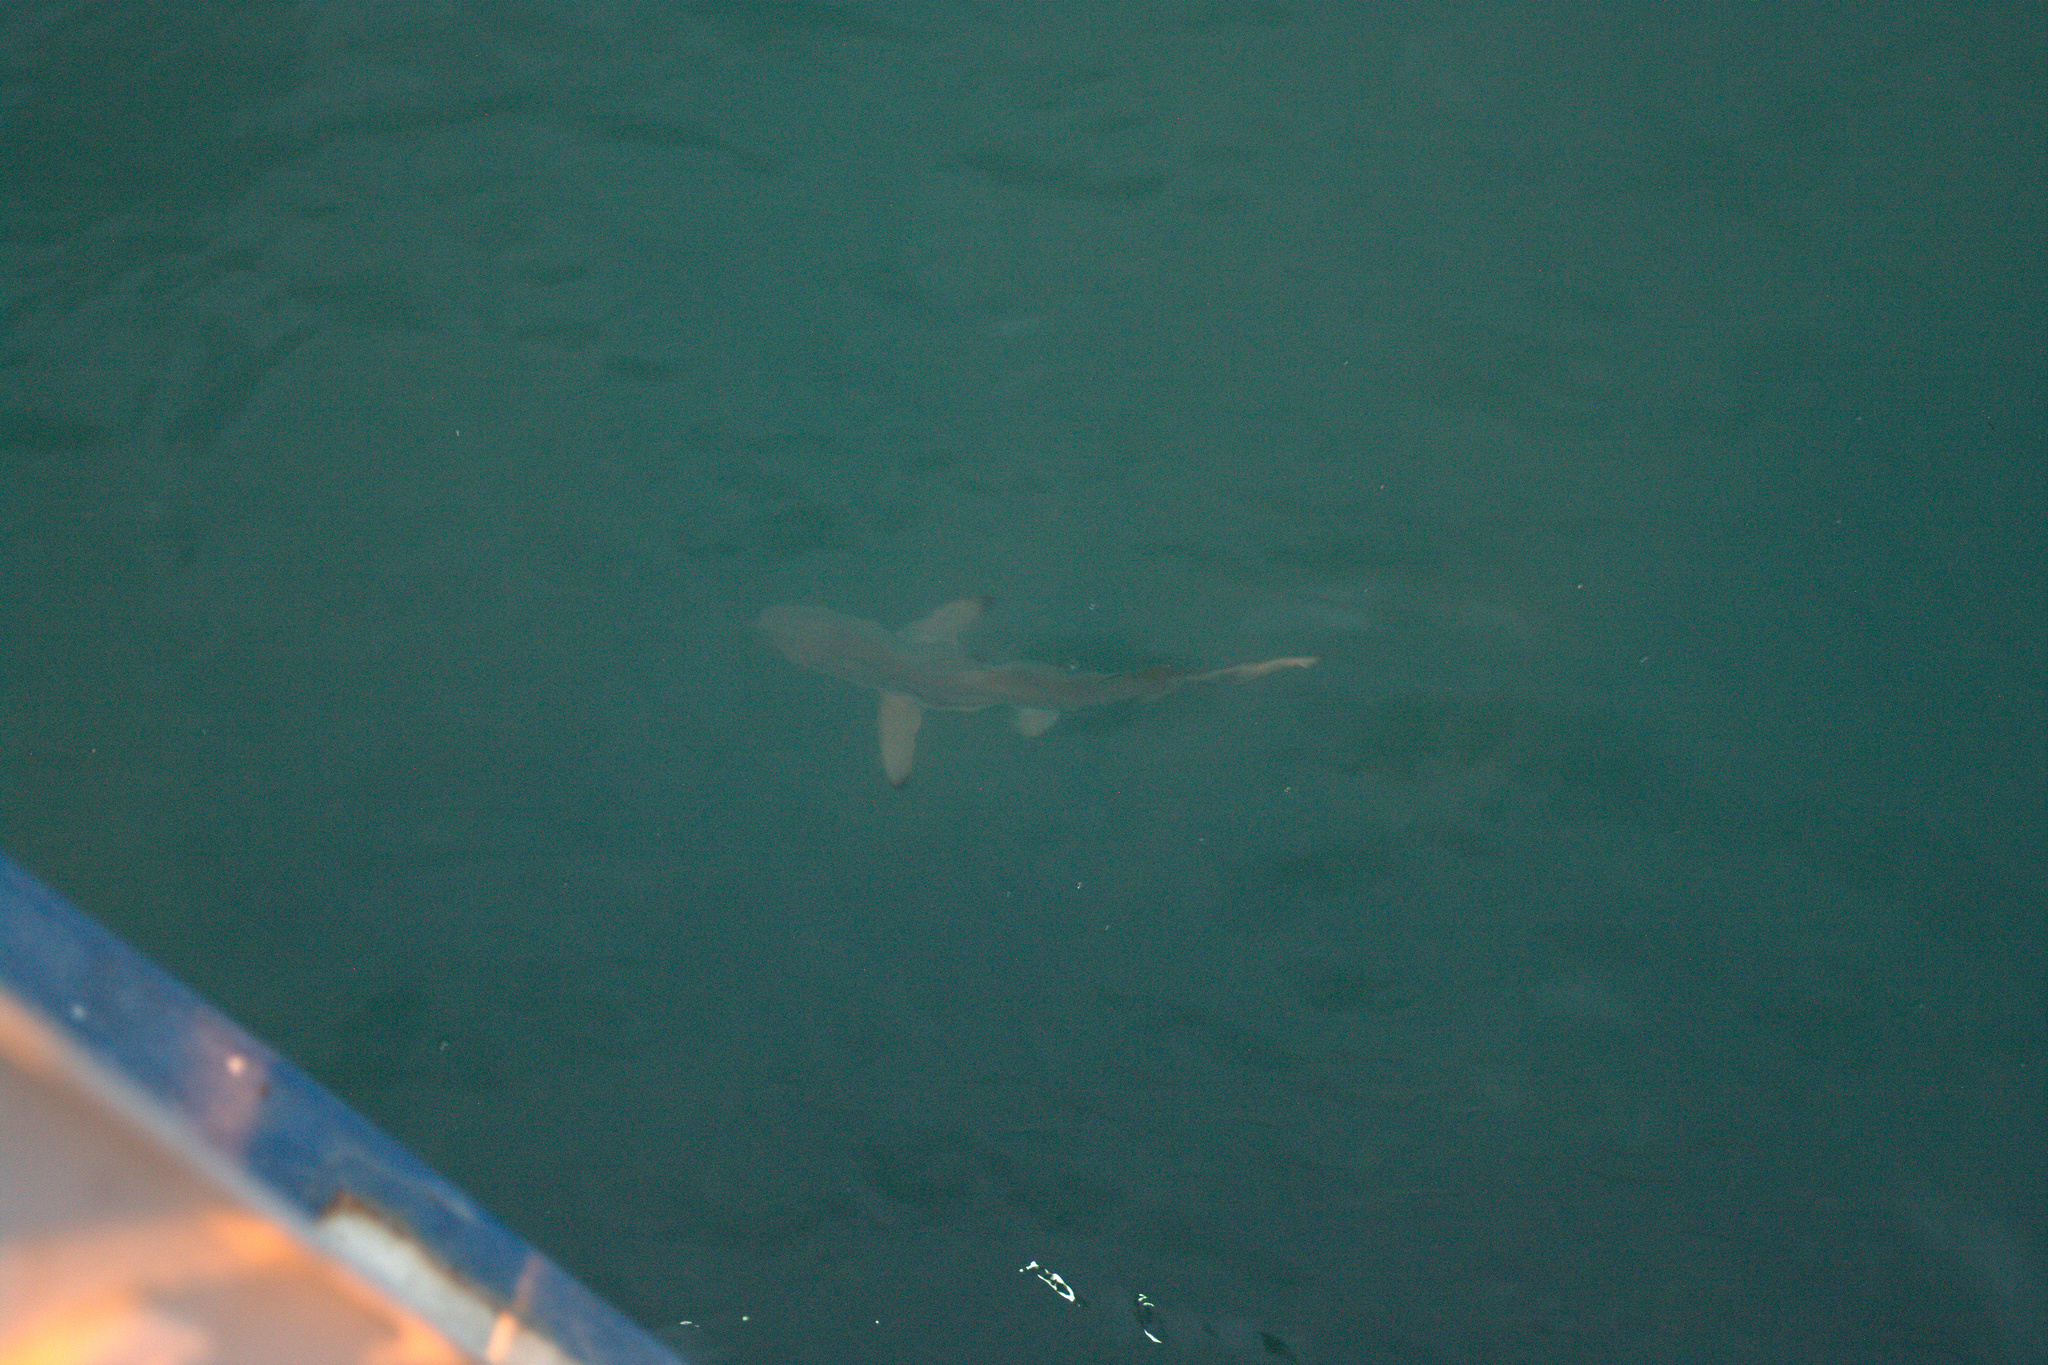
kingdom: Animalia
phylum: Chordata
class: Elasmobranchii
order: Carcharhiniformes
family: Carcharhinidae
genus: Carcharhinus
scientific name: Carcharhinus limbatus
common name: Blacktip shark
